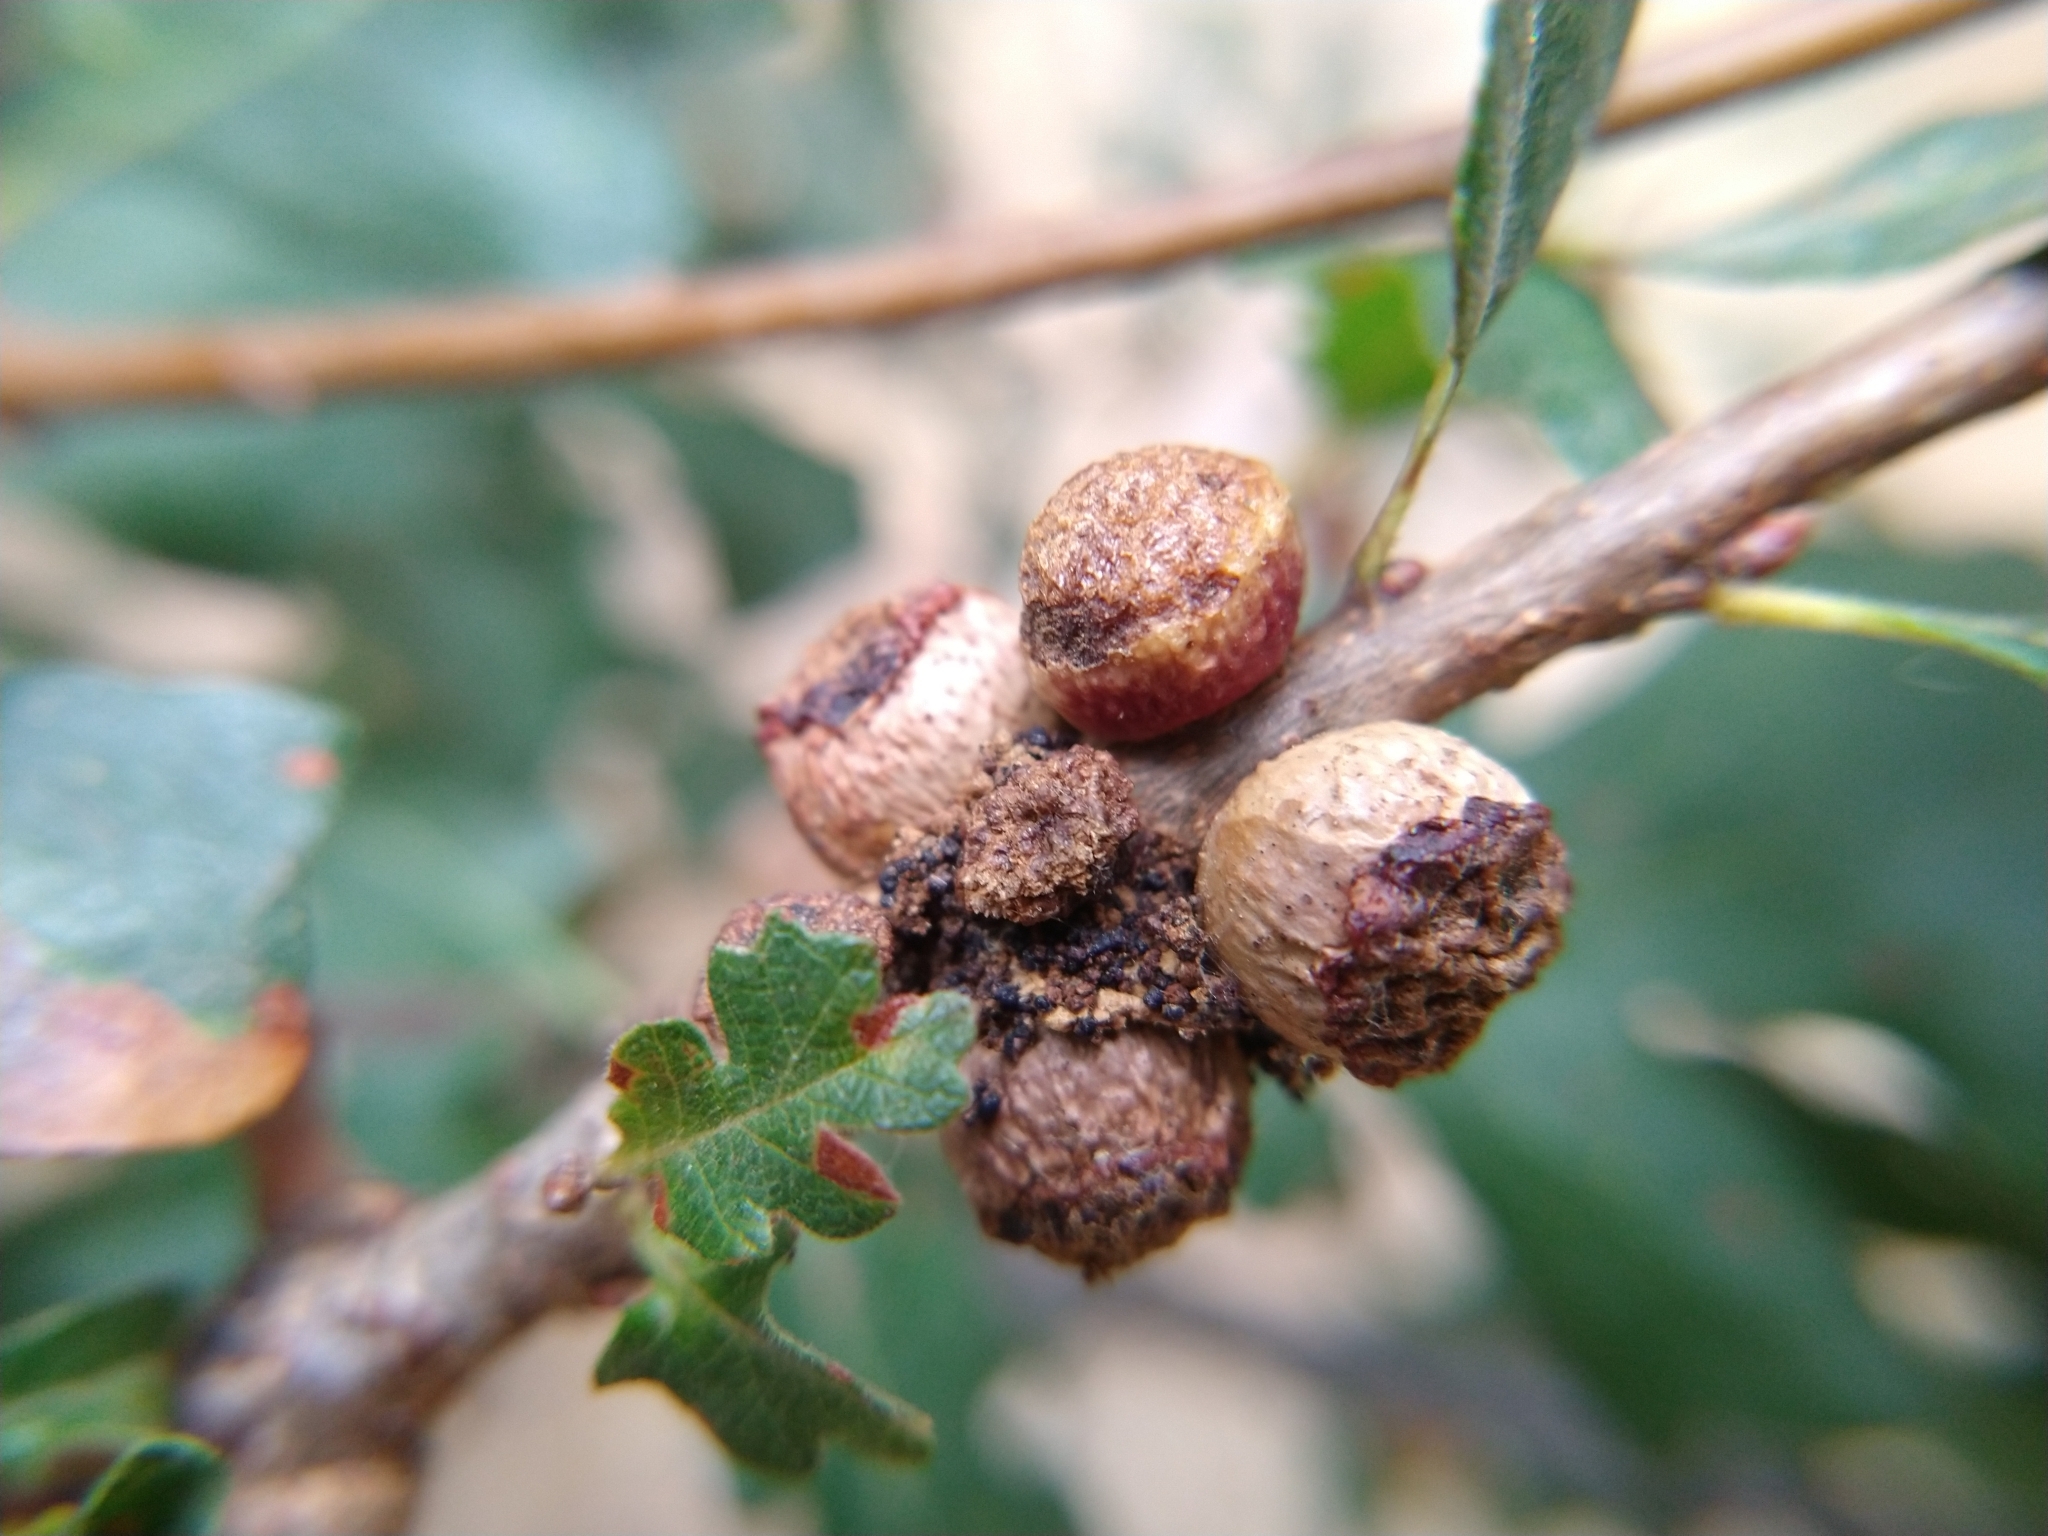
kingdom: Animalia
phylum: Arthropoda
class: Insecta
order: Hymenoptera
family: Cynipidae
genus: Disholcaspis
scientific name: Disholcaspis
